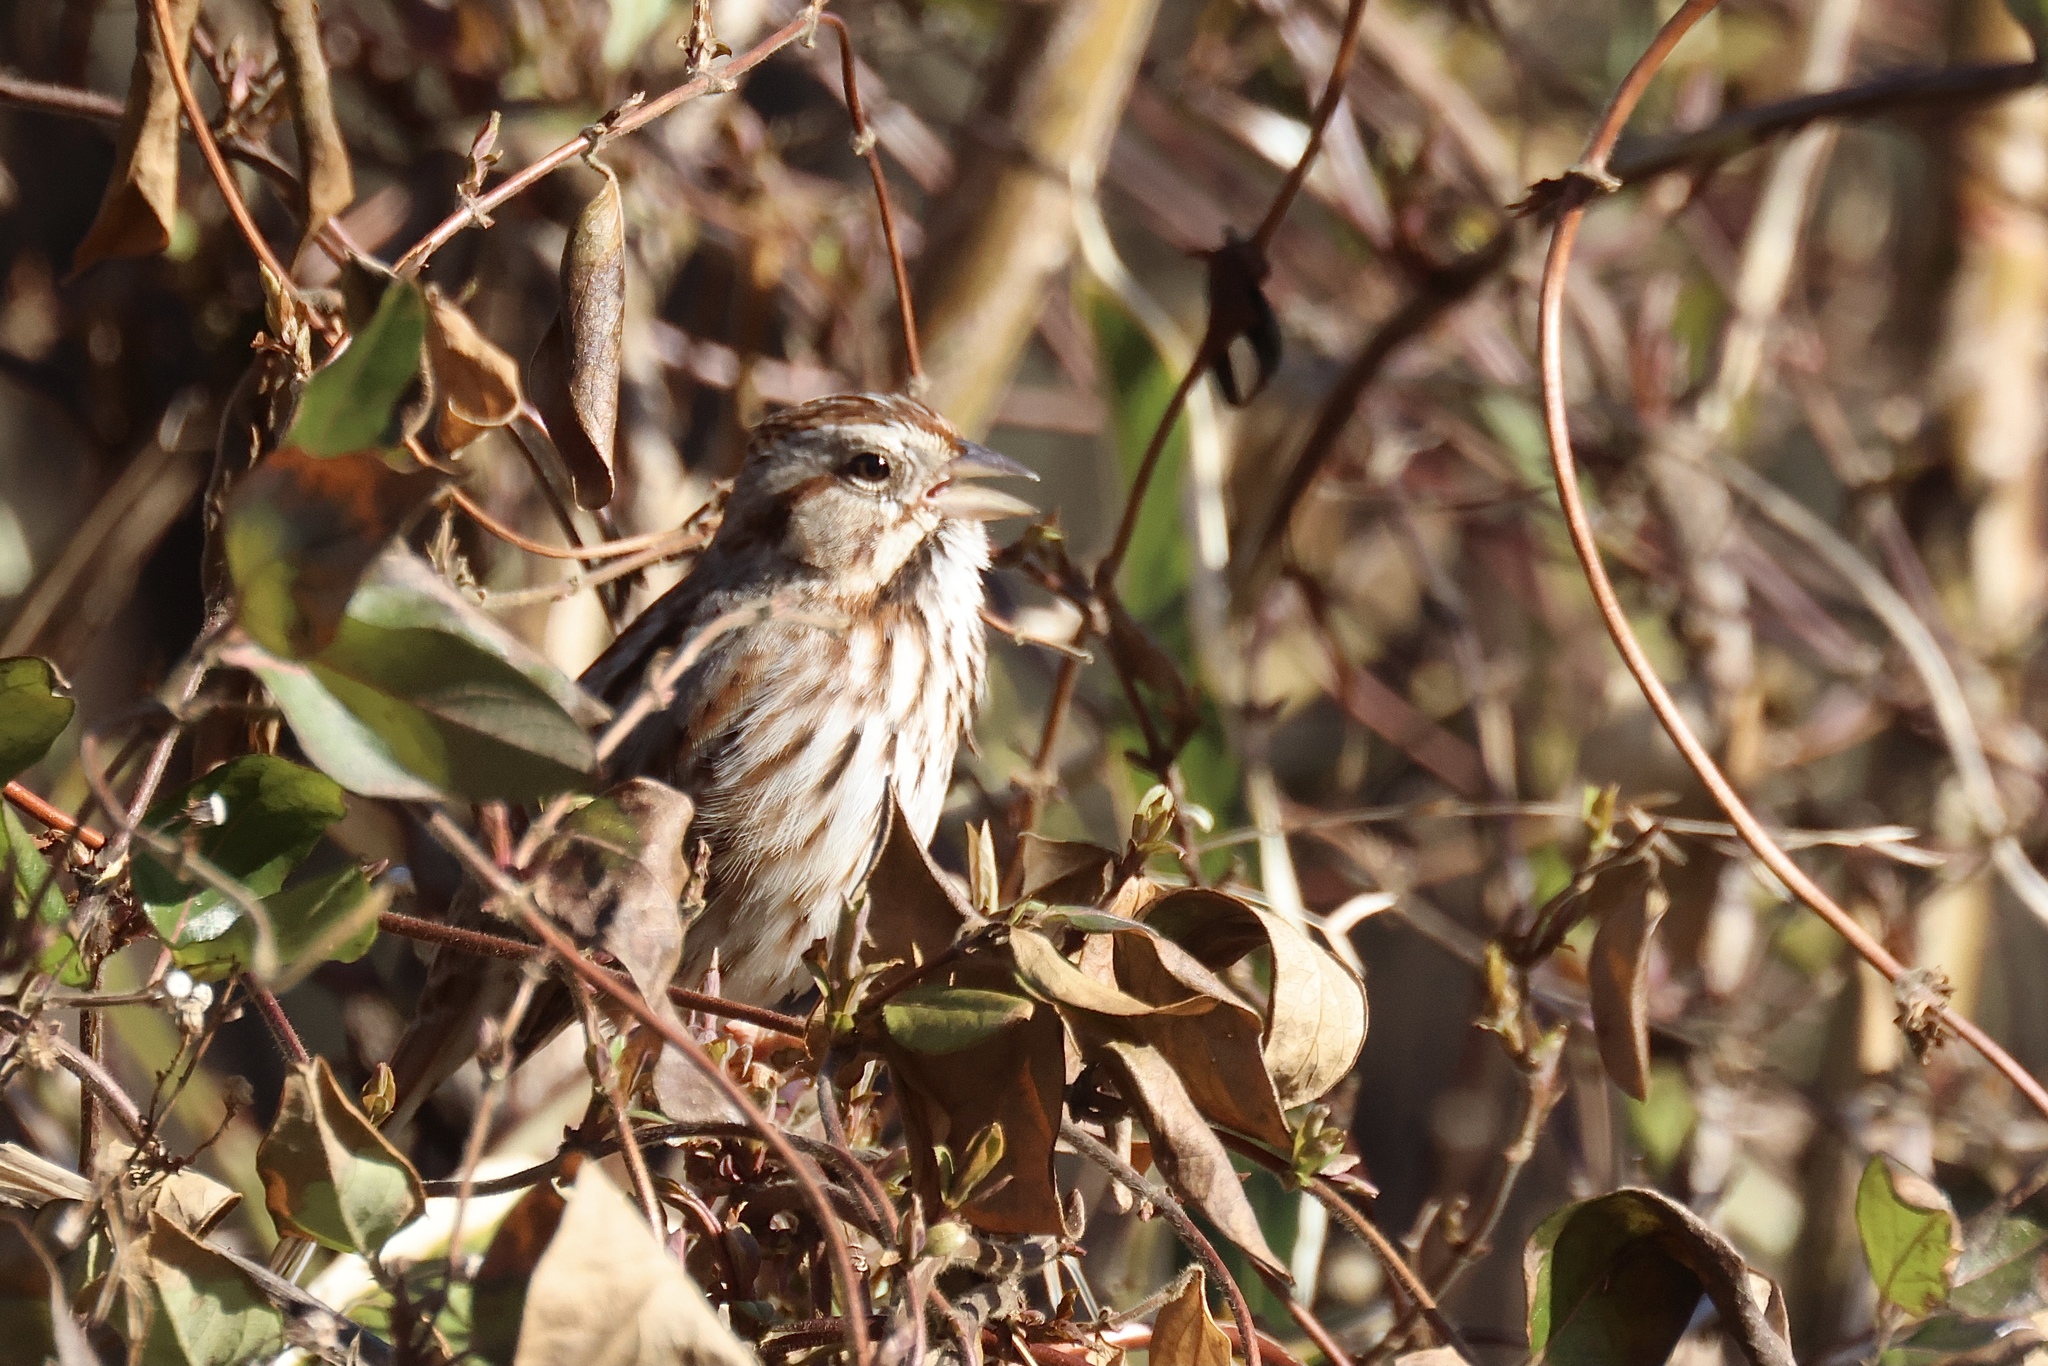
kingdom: Animalia
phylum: Chordata
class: Aves
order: Passeriformes
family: Passerellidae
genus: Melospiza
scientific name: Melospiza melodia
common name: Song sparrow
